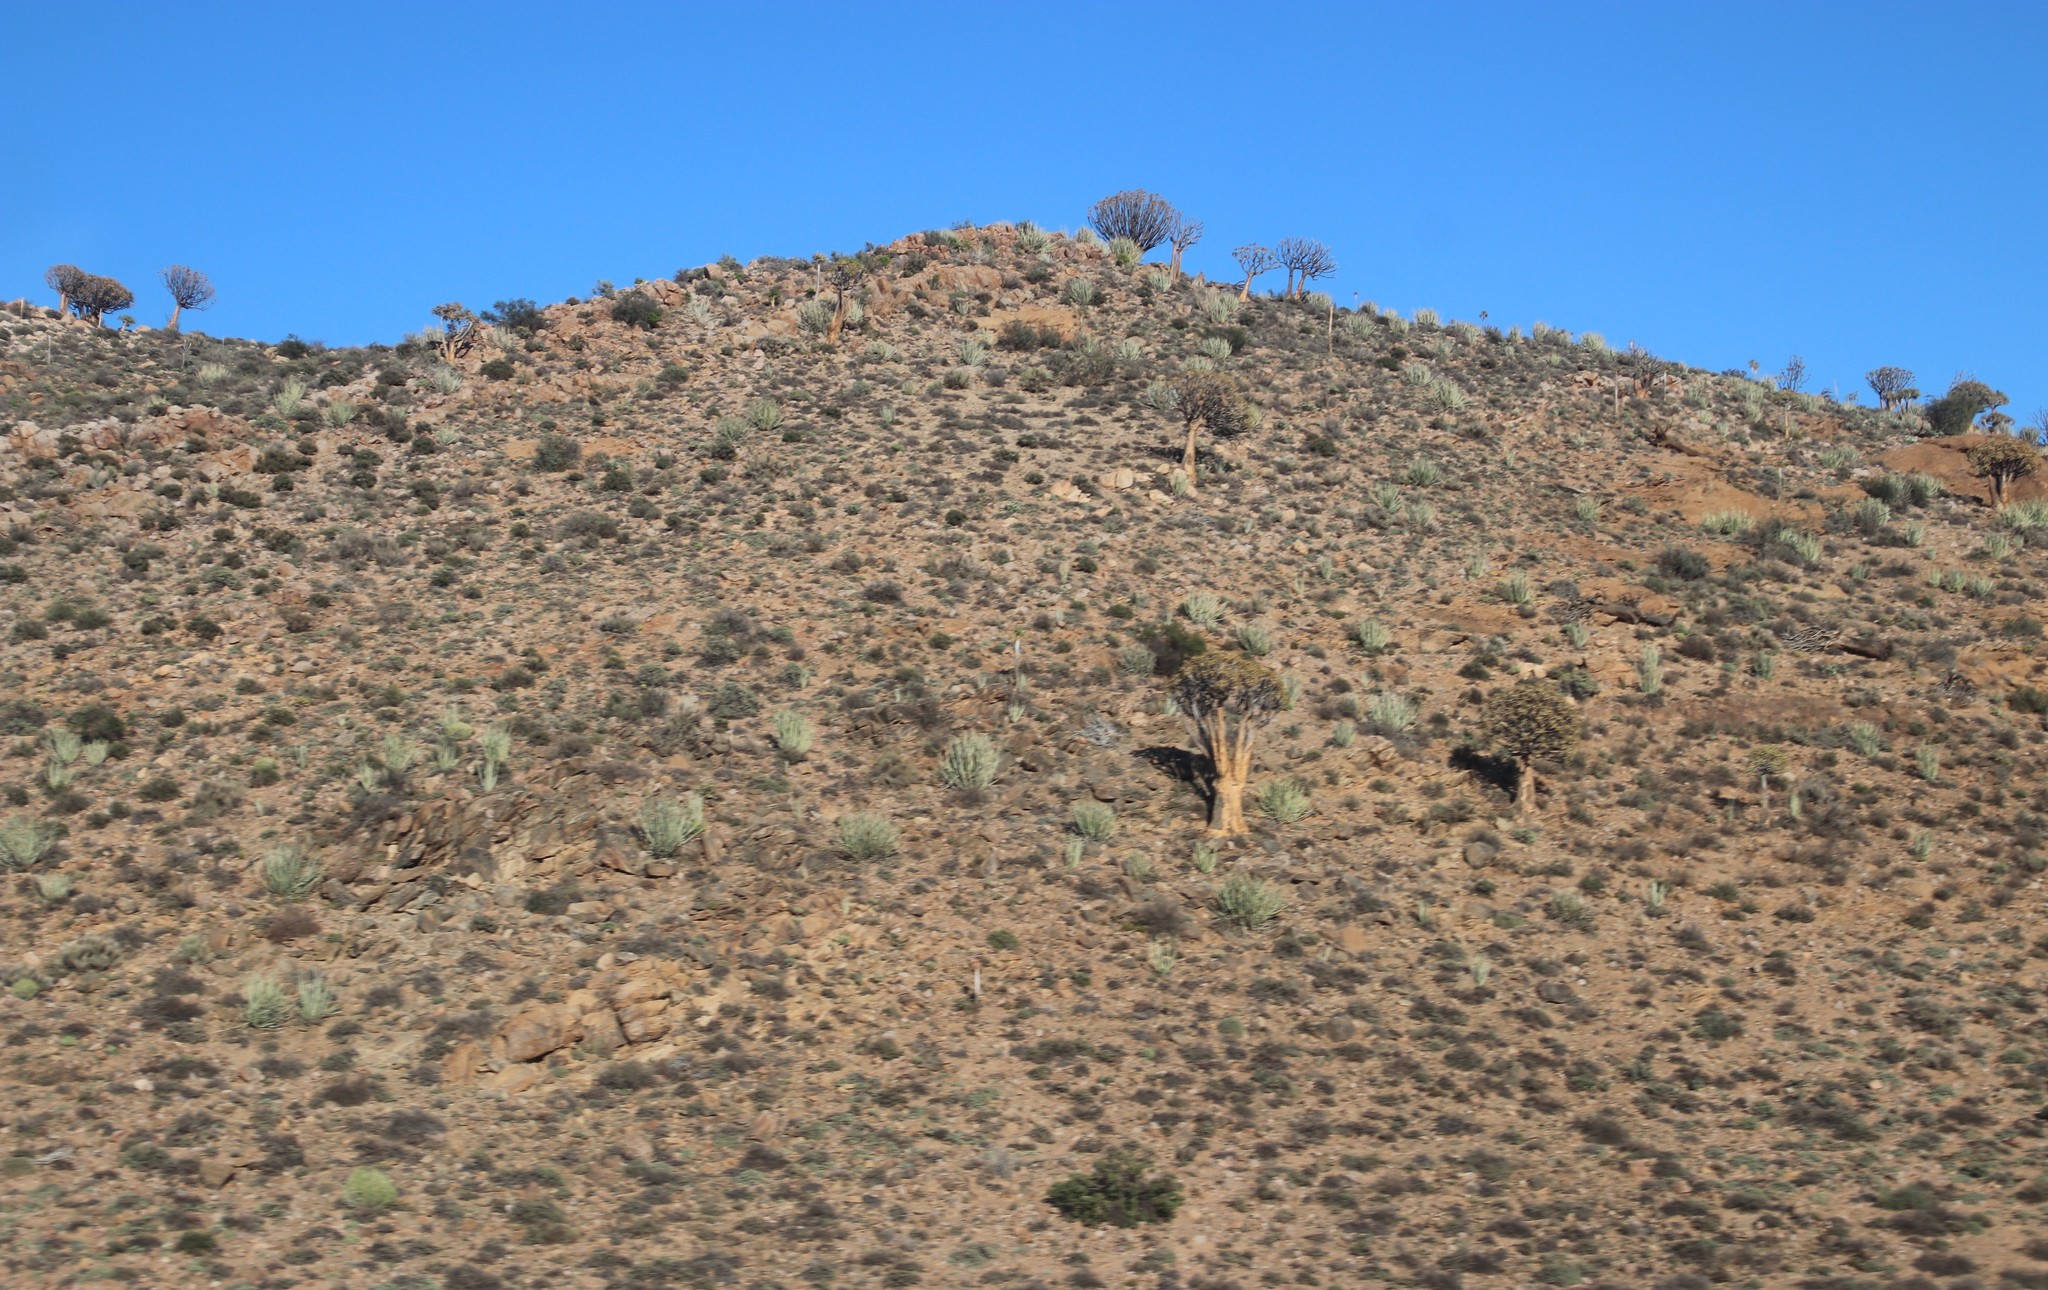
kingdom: Plantae
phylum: Tracheophyta
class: Liliopsida
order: Asparagales
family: Asphodelaceae
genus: Aloidendron
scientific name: Aloidendron dichotomum
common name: Quiver tree
